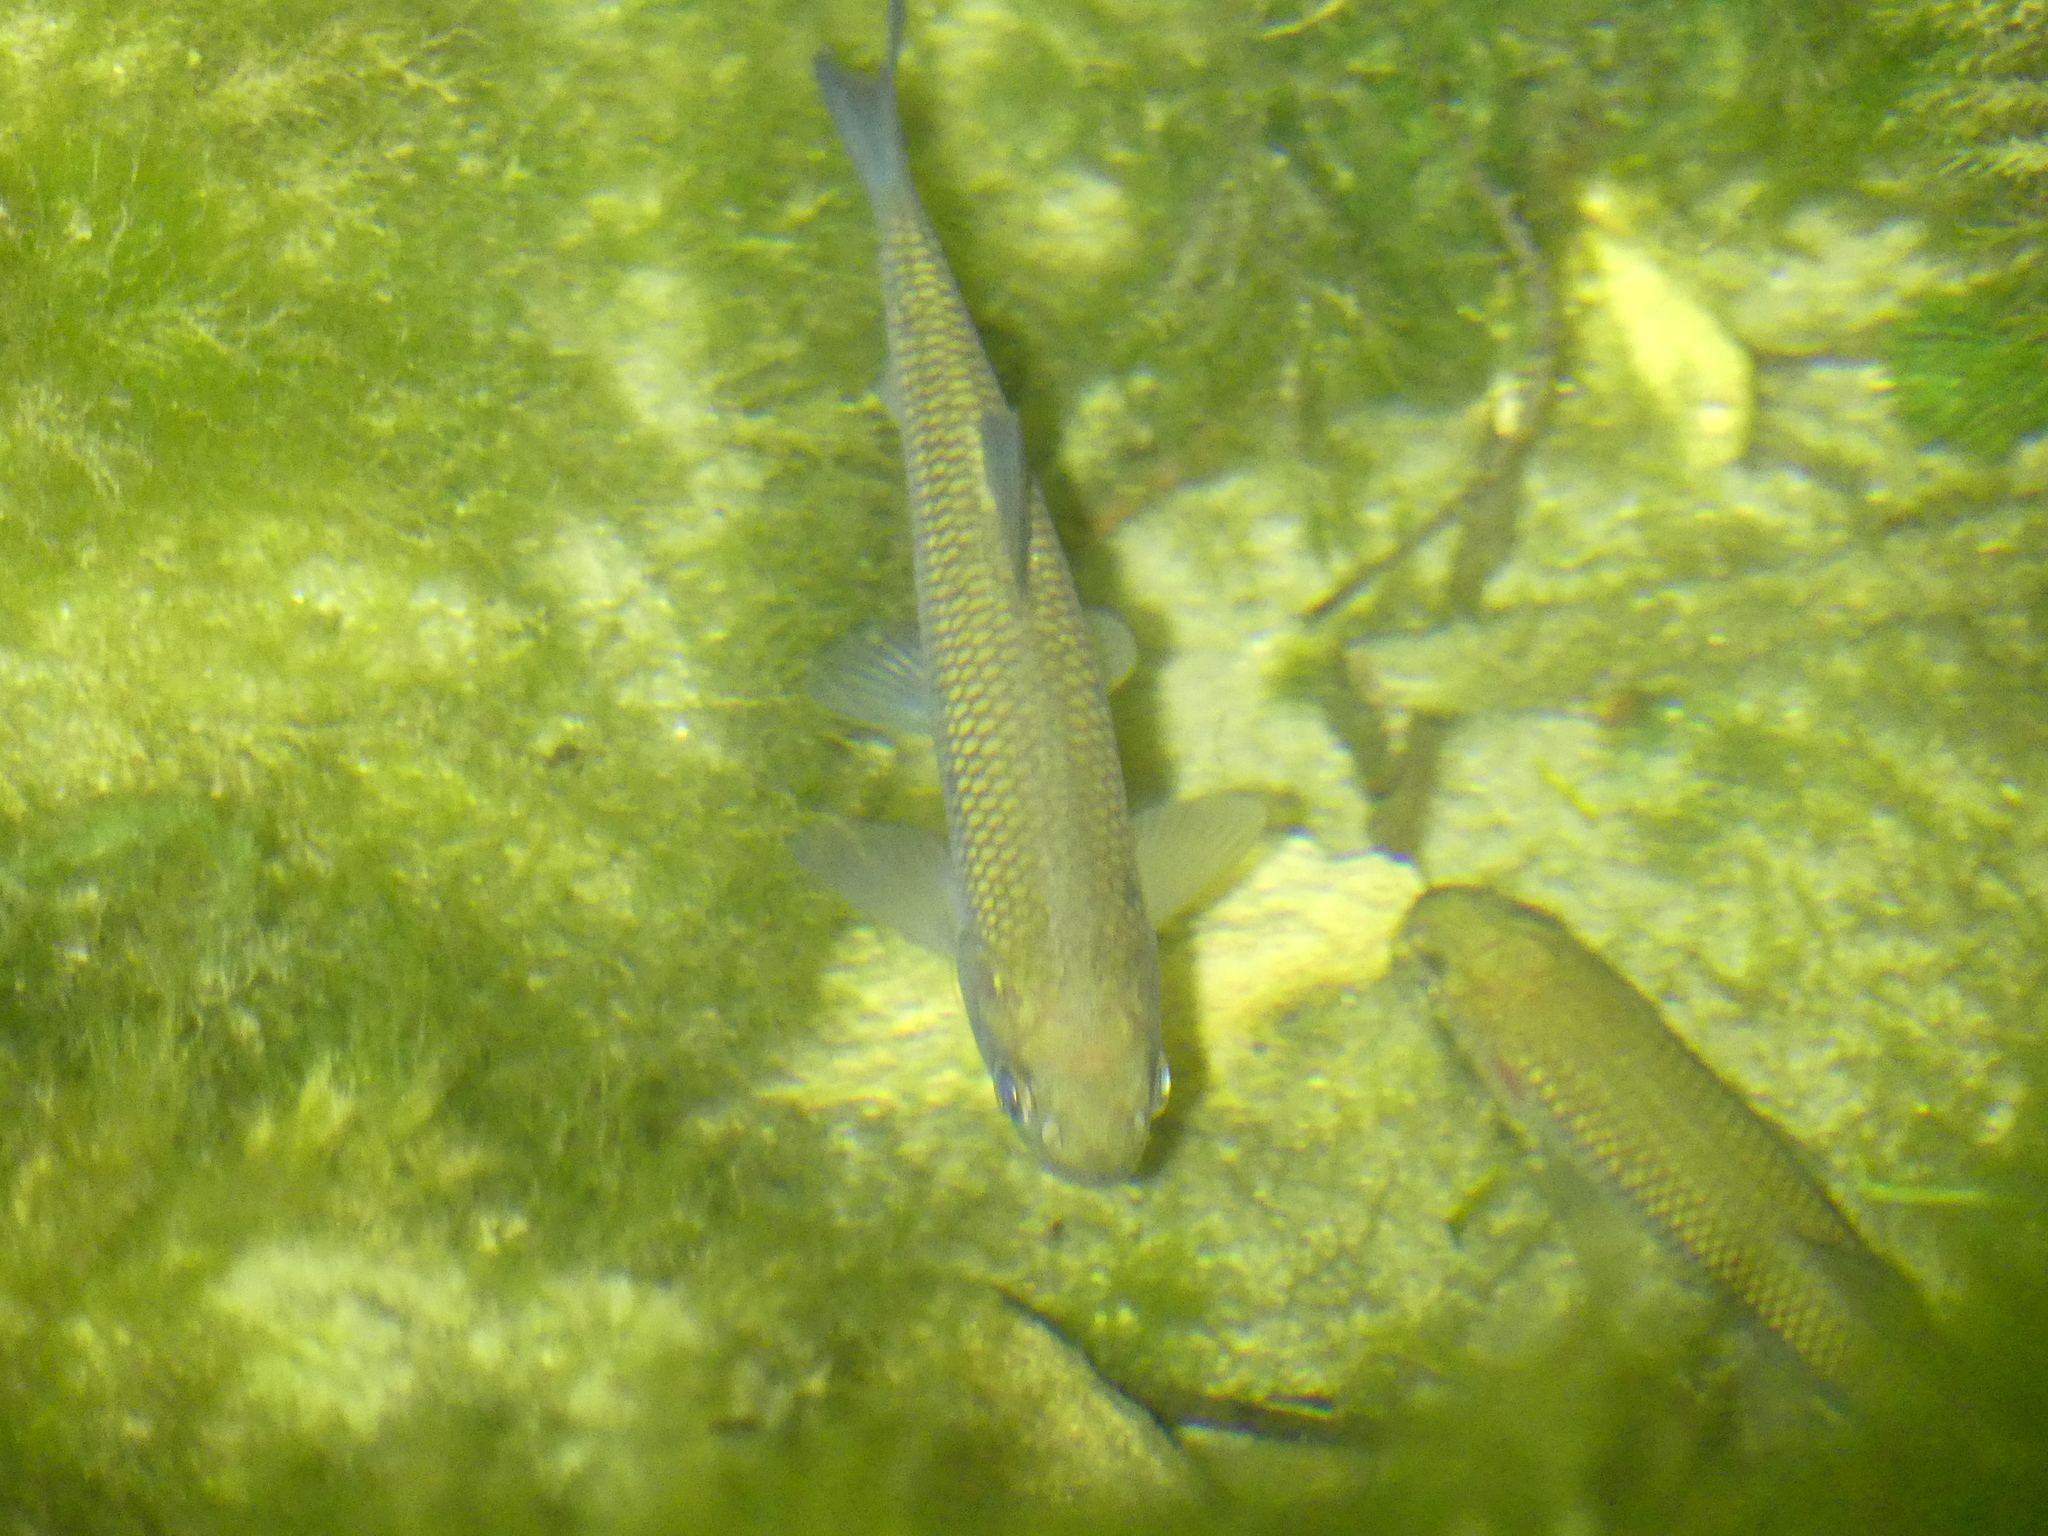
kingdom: Animalia
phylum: Chordata
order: Cypriniformes
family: Cyprinidae
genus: Squalius
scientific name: Squalius cephalus
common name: Chub
